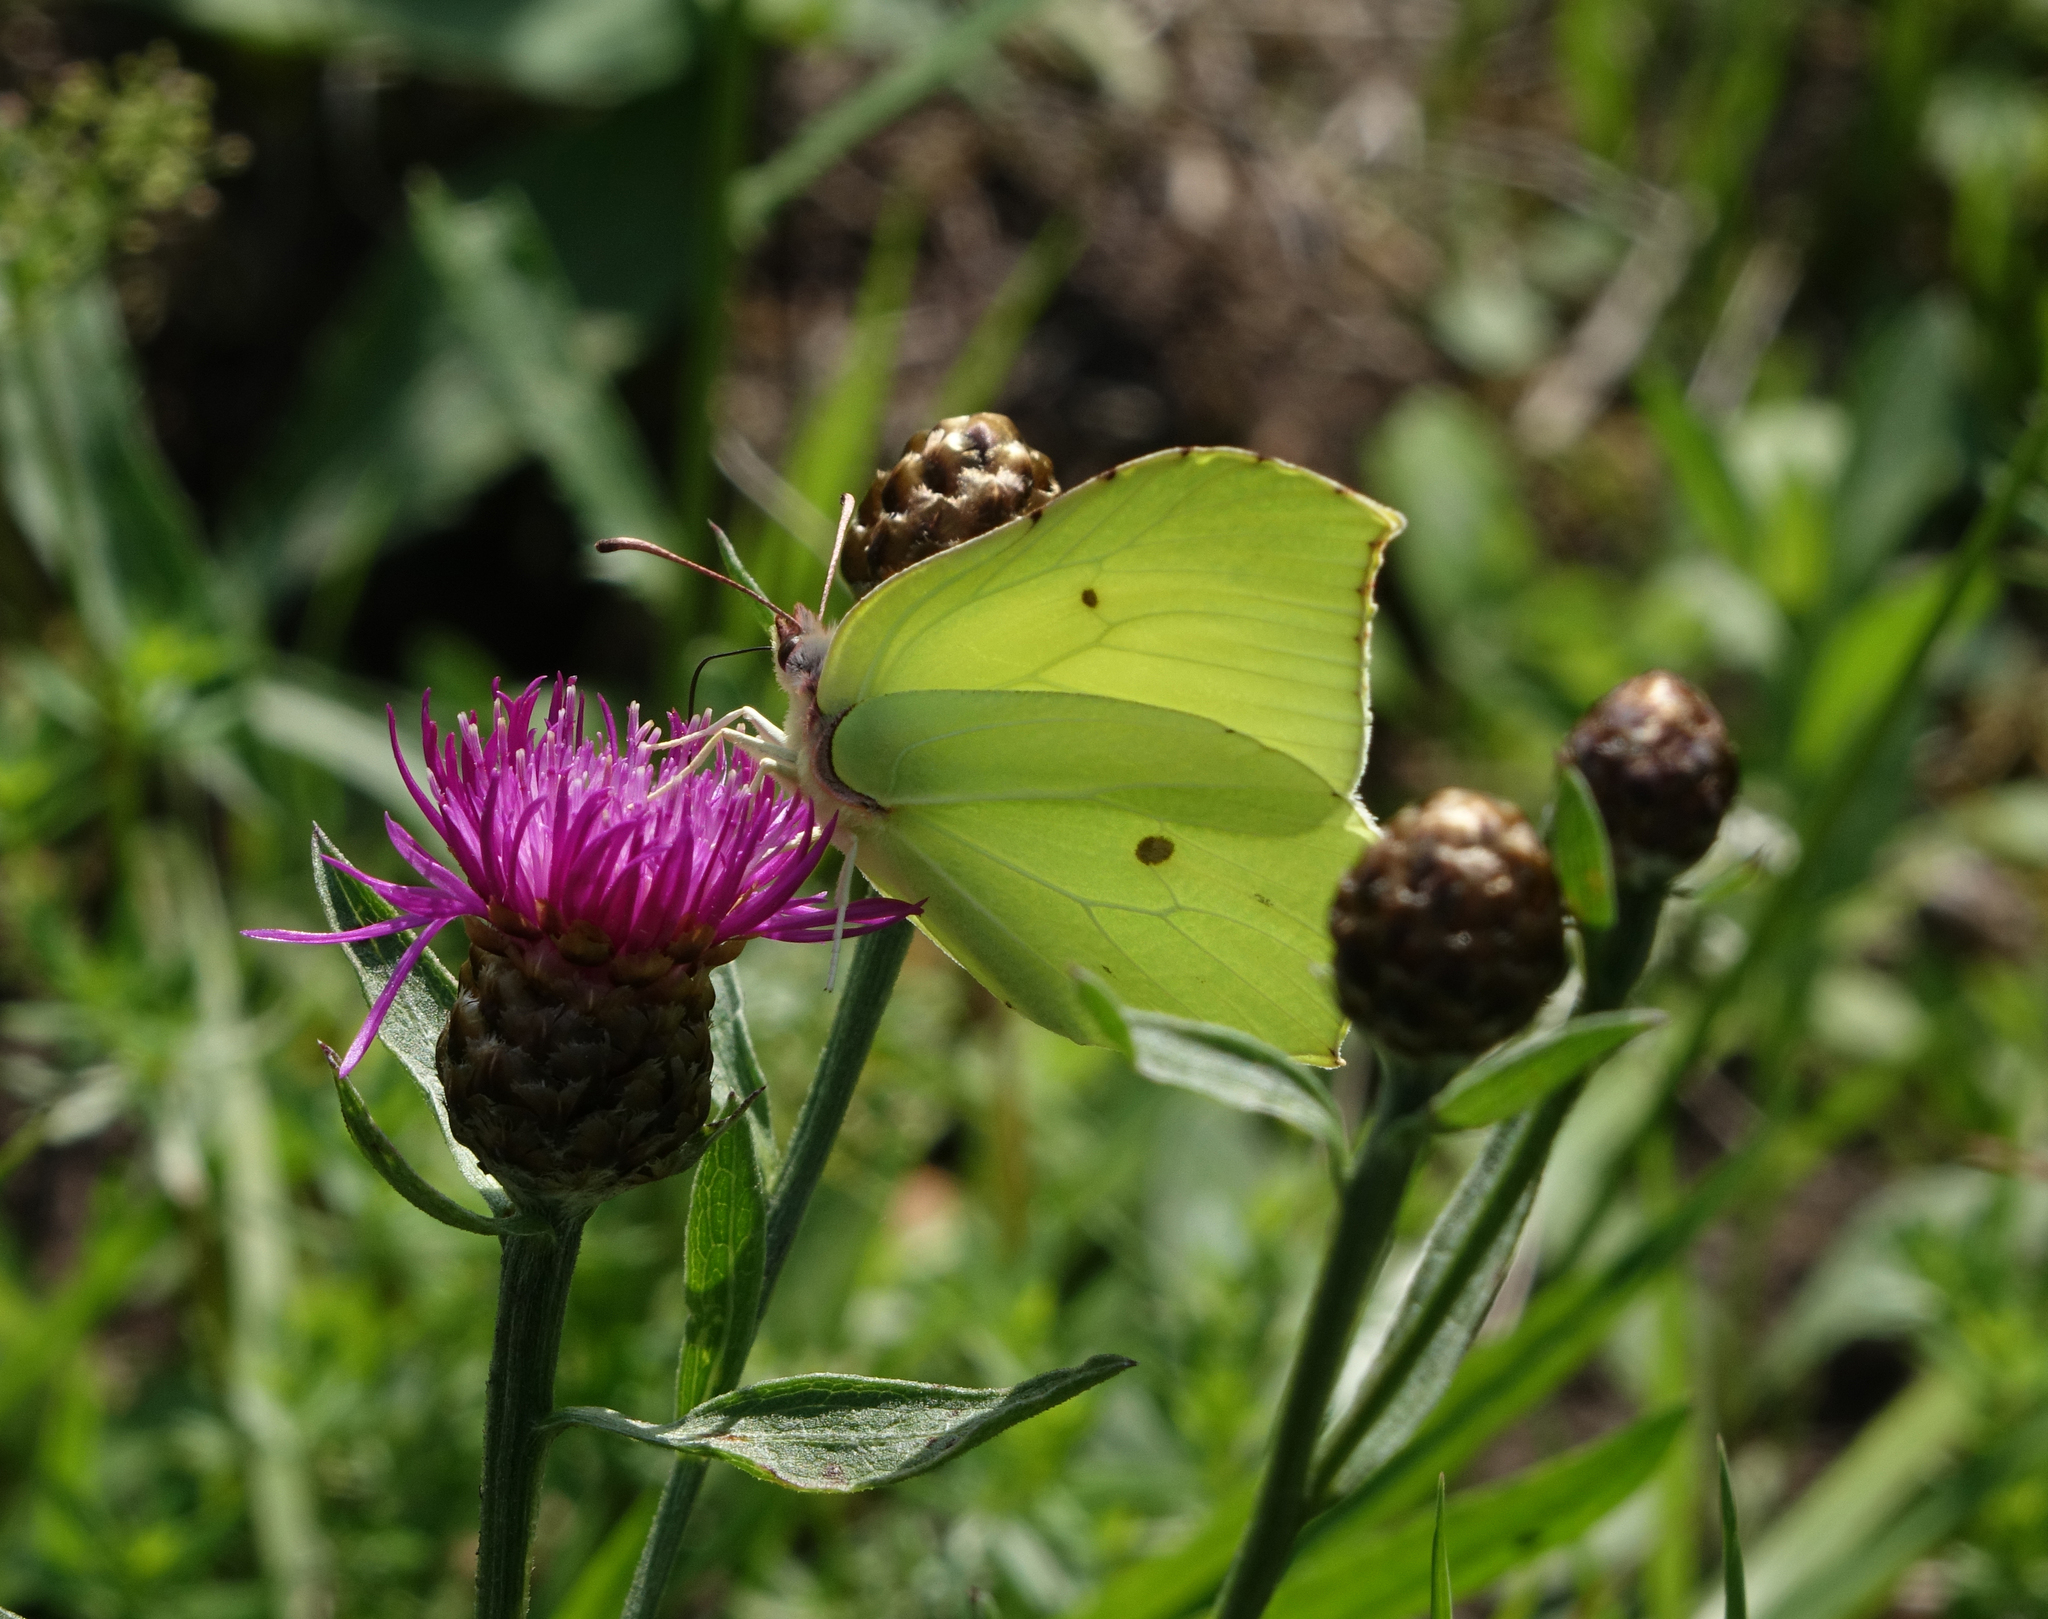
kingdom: Animalia
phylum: Arthropoda
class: Insecta
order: Lepidoptera
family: Pieridae
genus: Gonepteryx
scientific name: Gonepteryx rhamni
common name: Brimstone
